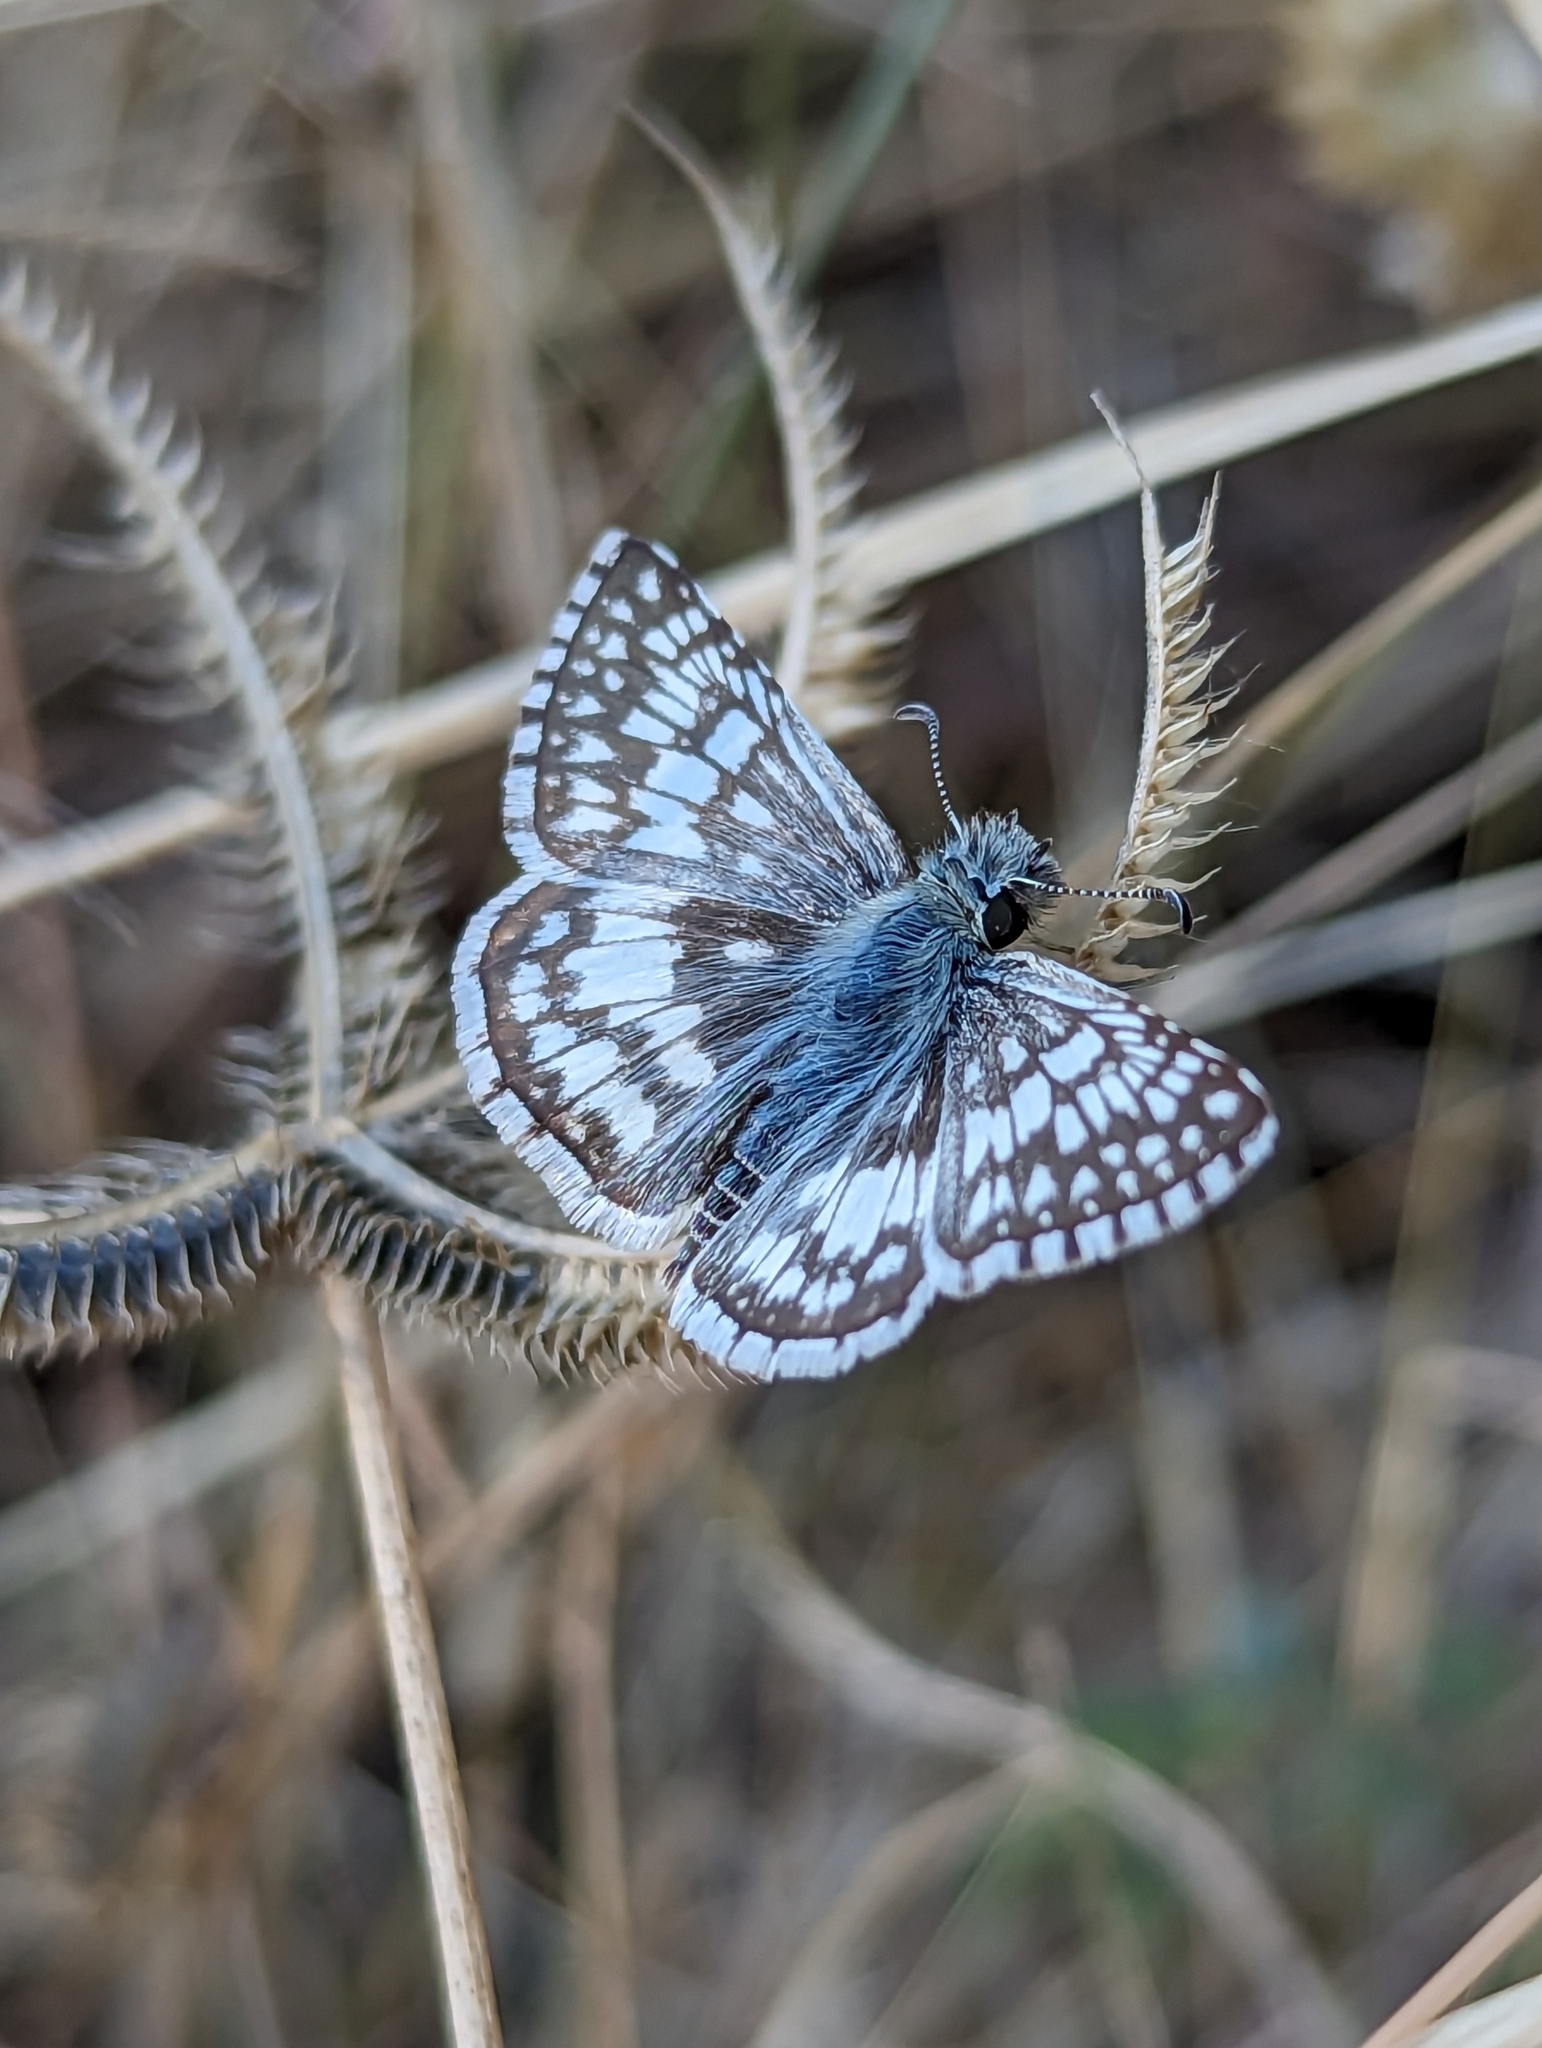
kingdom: Animalia
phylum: Arthropoda
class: Insecta
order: Lepidoptera
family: Hesperiidae
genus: Burnsius
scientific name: Burnsius albezens
